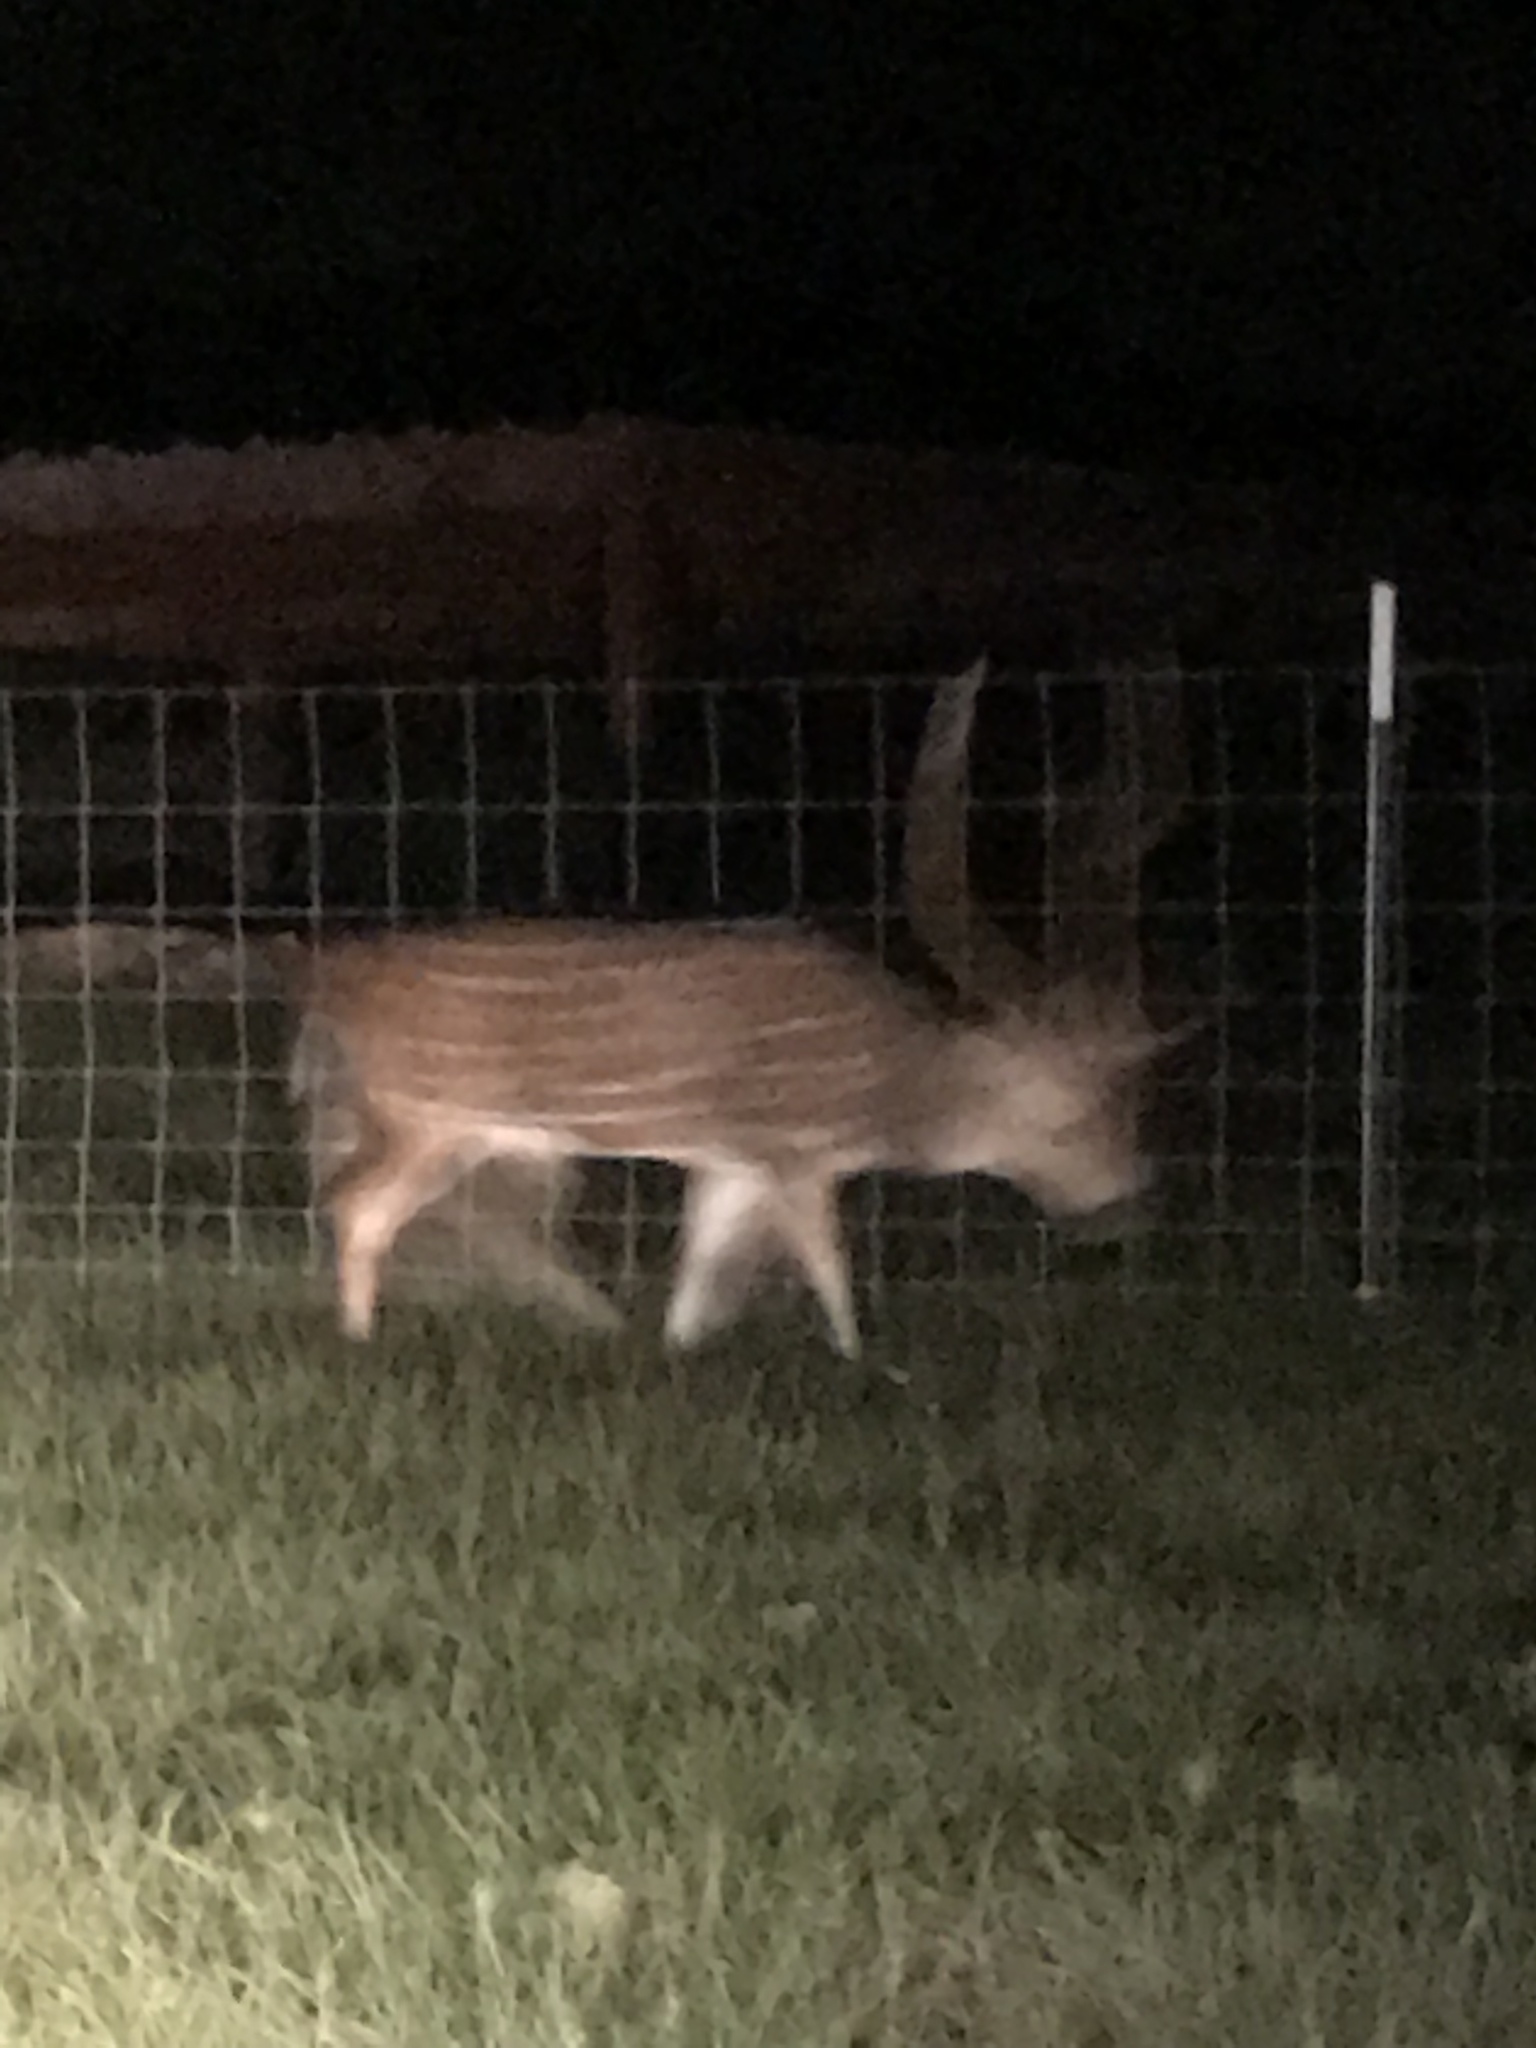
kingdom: Animalia
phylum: Chordata
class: Mammalia
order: Artiodactyla
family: Cervidae
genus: Axis
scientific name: Axis axis
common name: Chital
